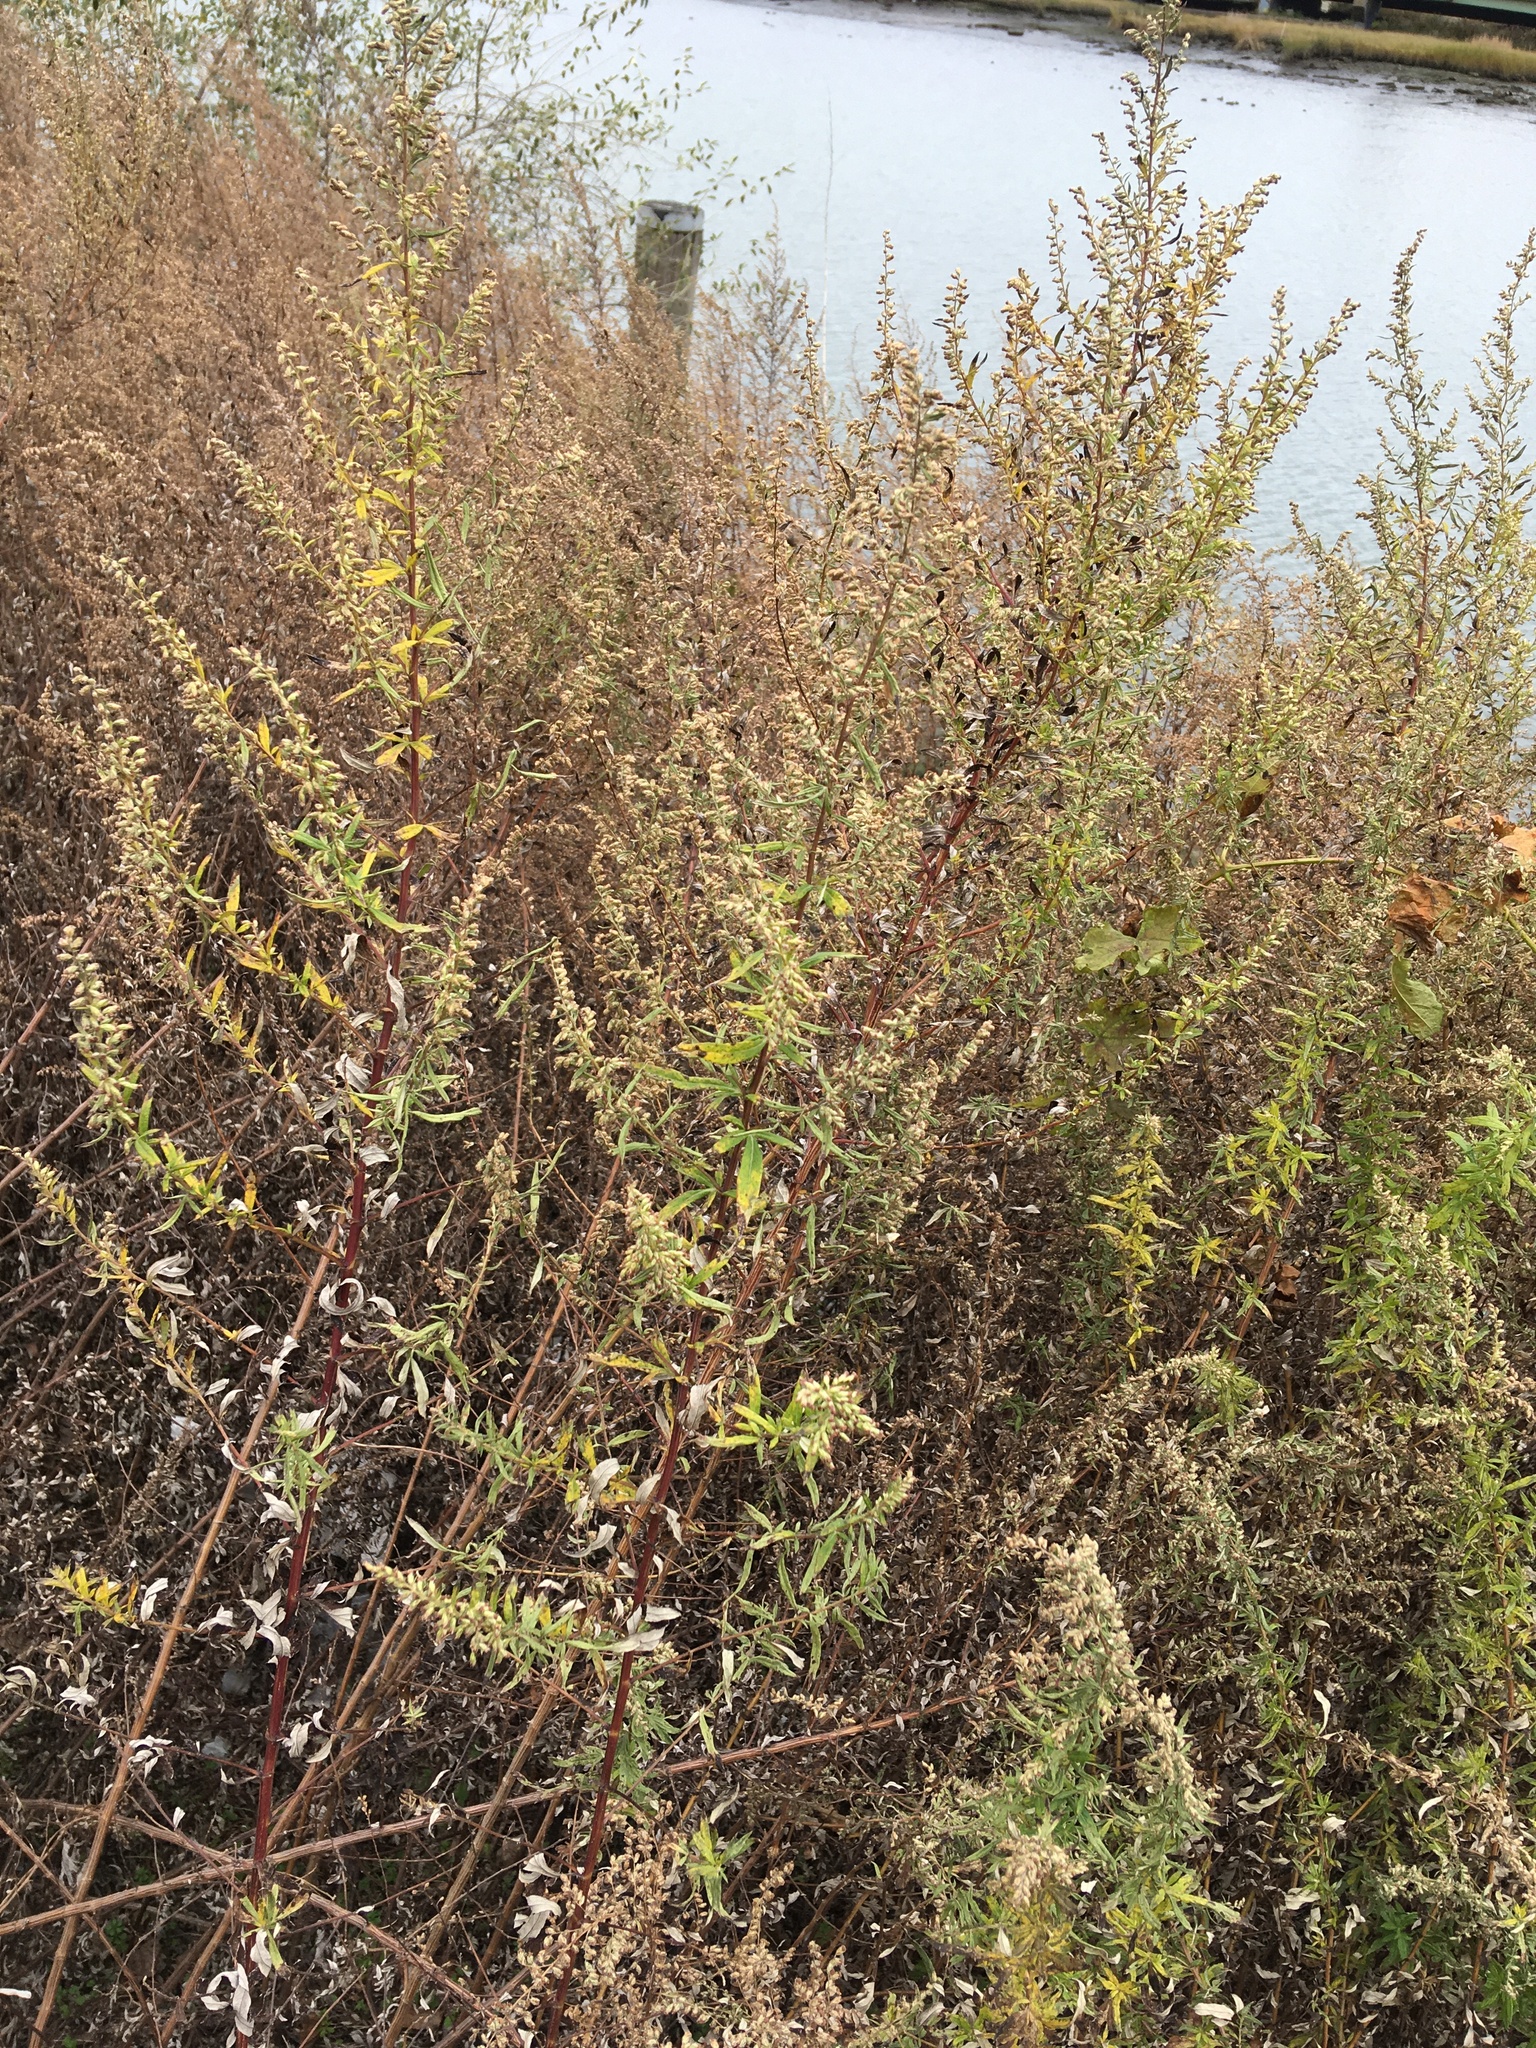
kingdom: Plantae
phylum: Tracheophyta
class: Magnoliopsida
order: Asterales
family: Asteraceae
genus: Artemisia
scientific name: Artemisia vulgaris
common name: Mugwort
